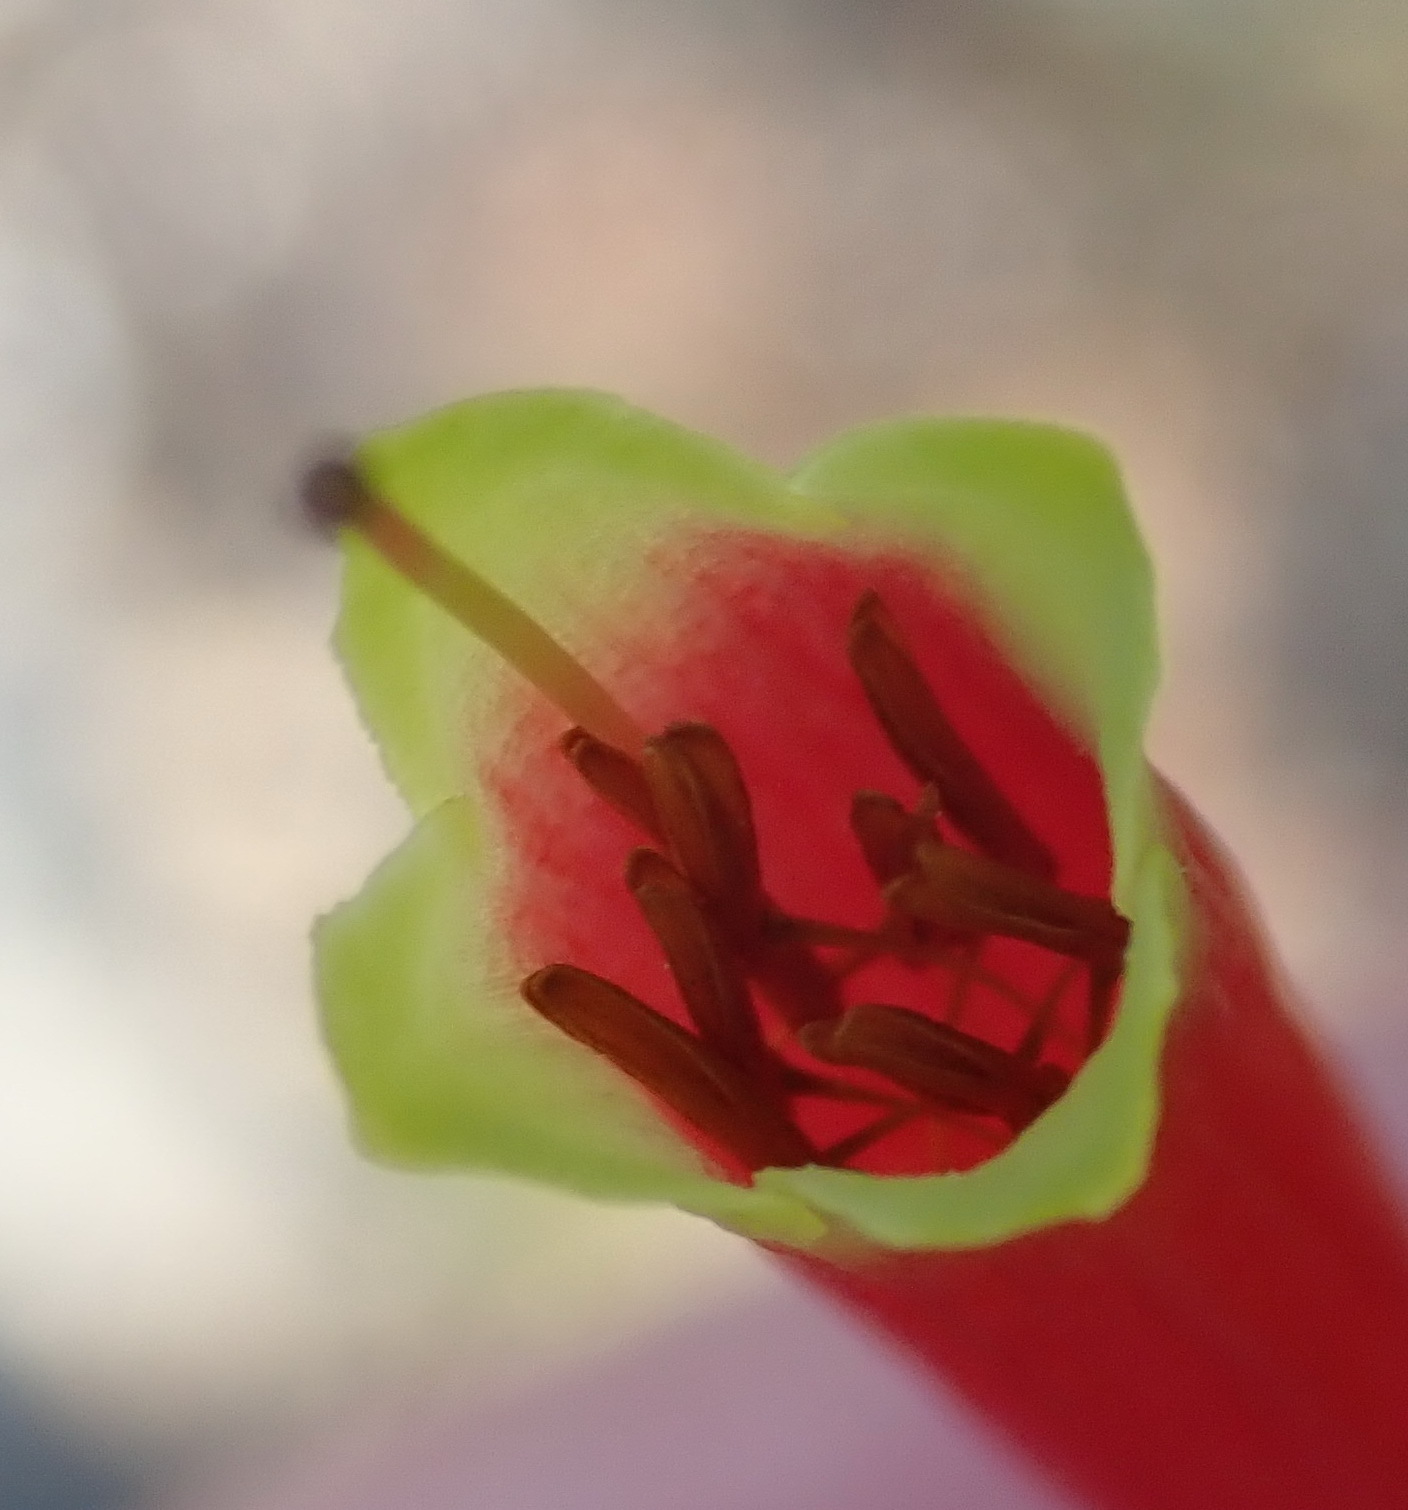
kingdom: Plantae
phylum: Tracheophyta
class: Magnoliopsida
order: Ericales
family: Ericaceae
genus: Erica
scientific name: Erica versicolor
